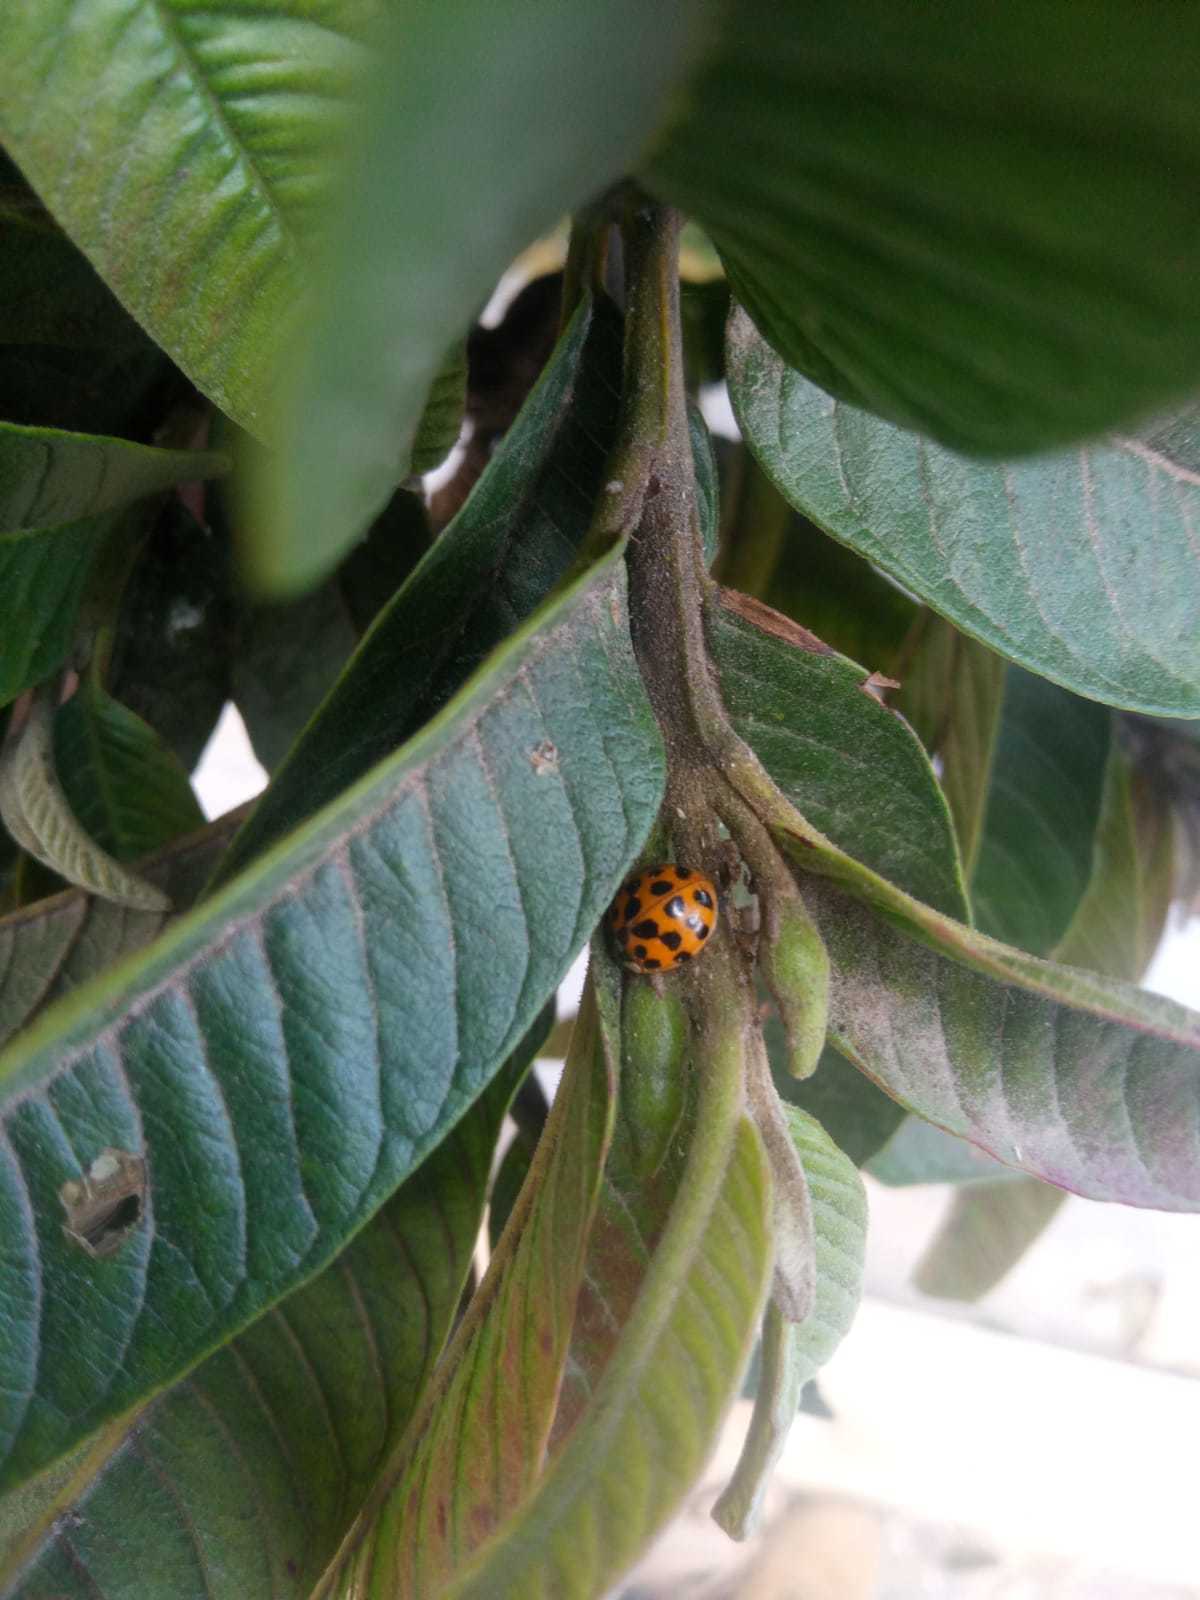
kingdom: Animalia
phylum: Arthropoda
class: Insecta
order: Coleoptera
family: Coccinellidae
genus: Harmonia
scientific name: Harmonia axyridis
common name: Harlequin ladybird
